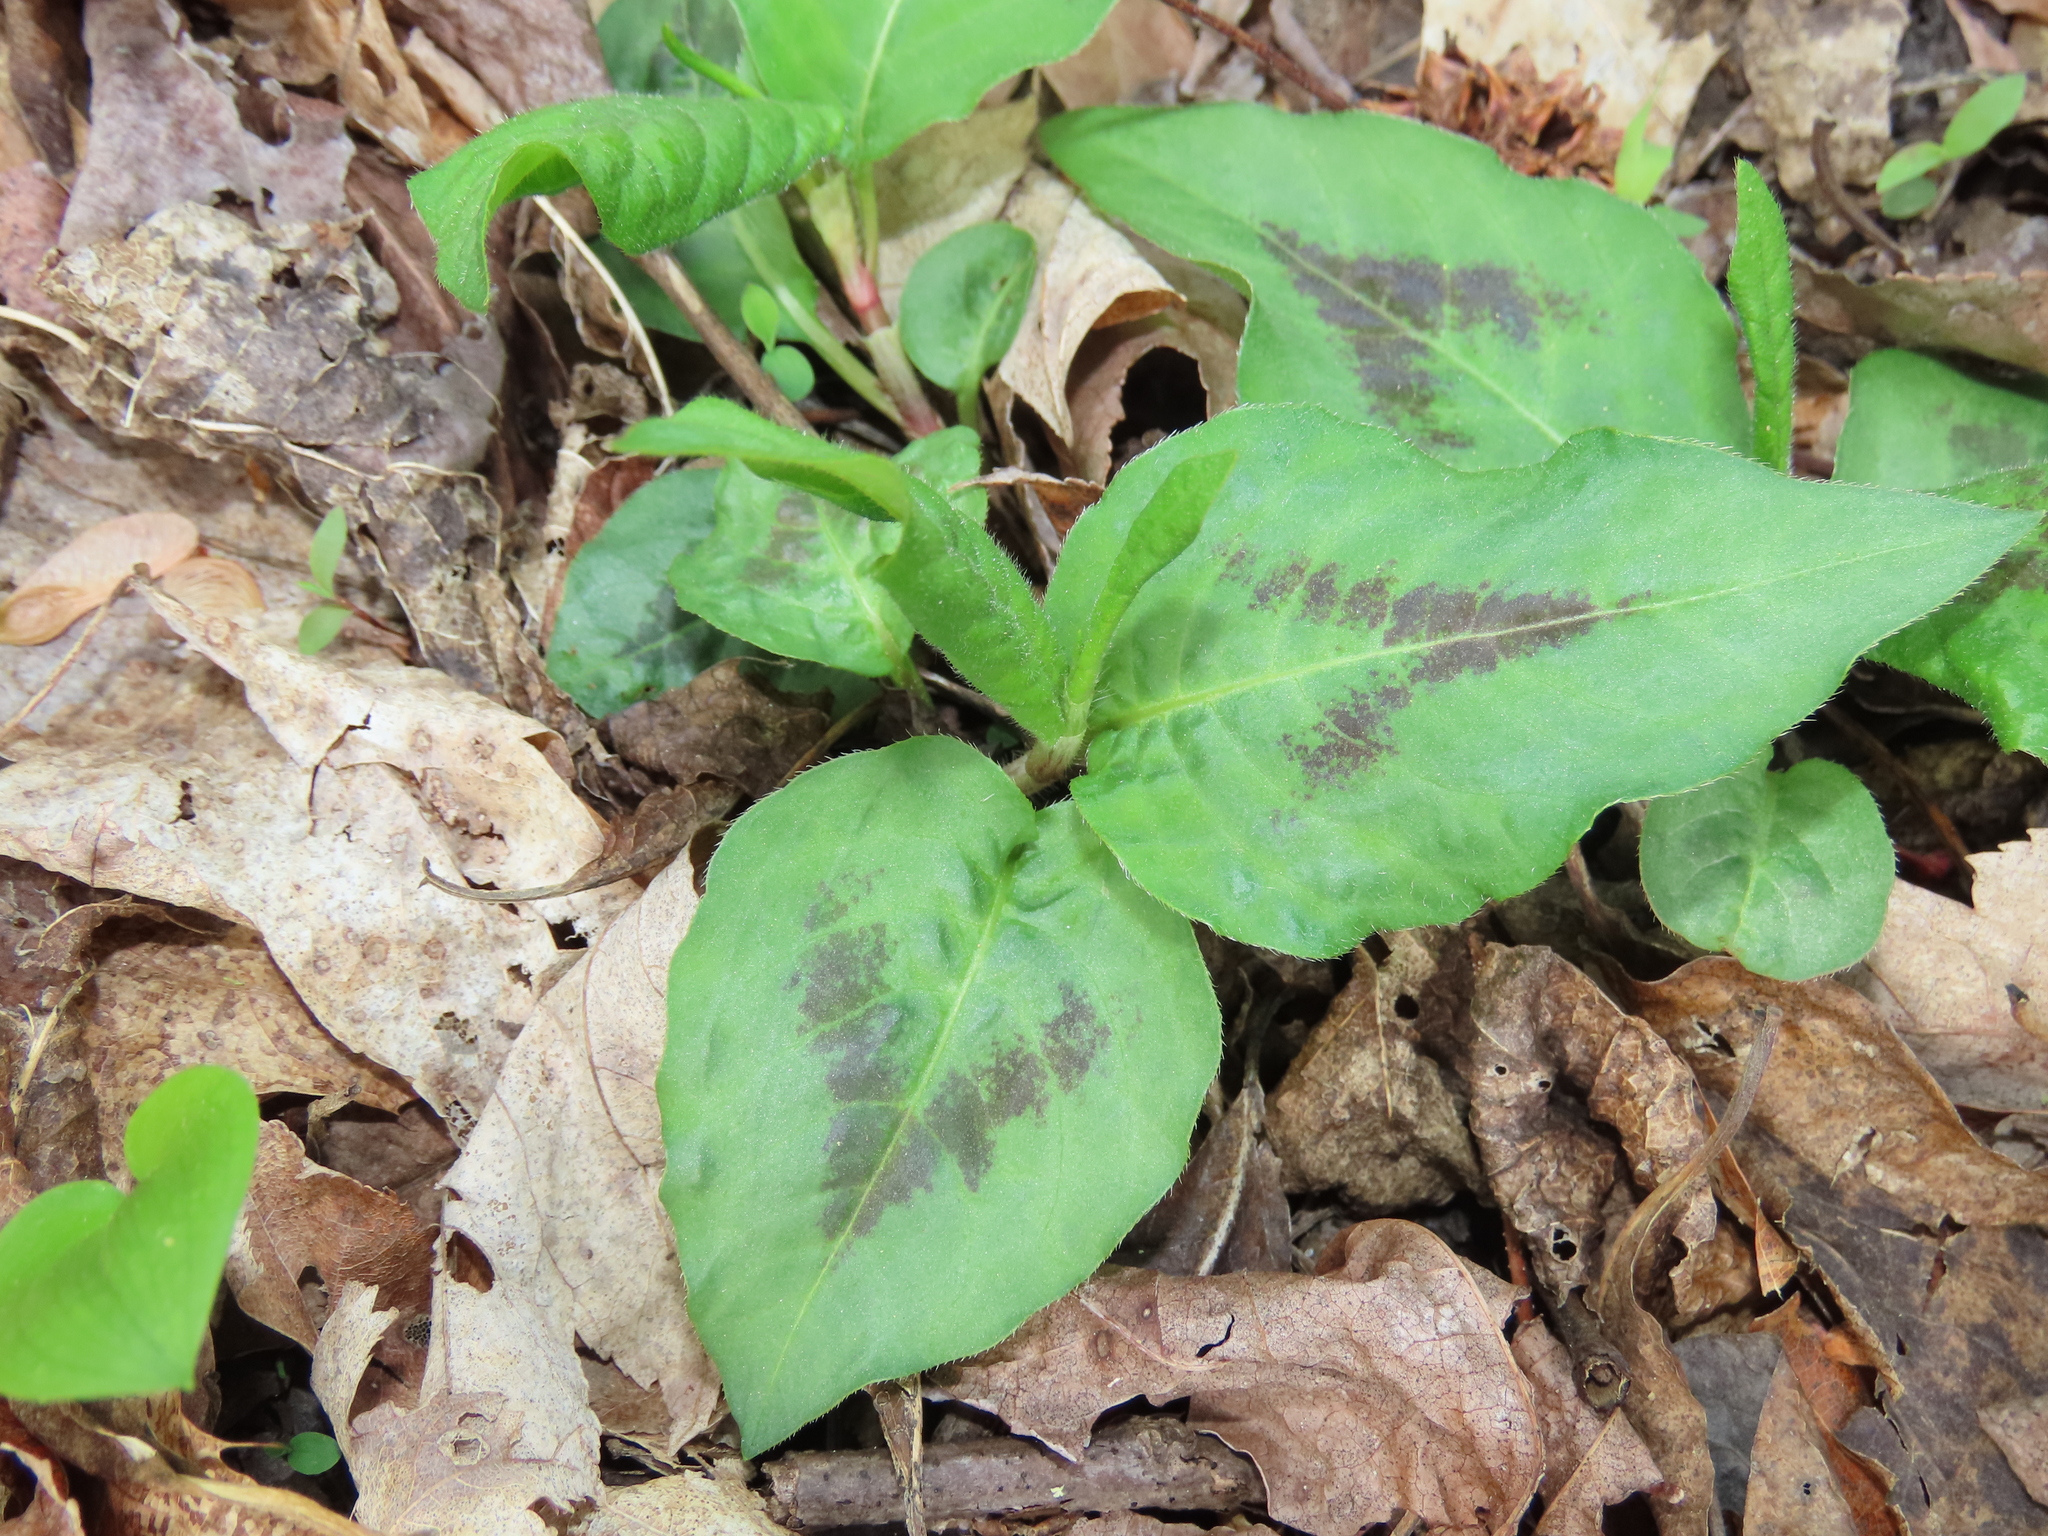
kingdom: Plantae
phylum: Tracheophyta
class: Magnoliopsida
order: Caryophyllales
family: Polygonaceae
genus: Persicaria
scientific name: Persicaria virginiana
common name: Jumpseed
